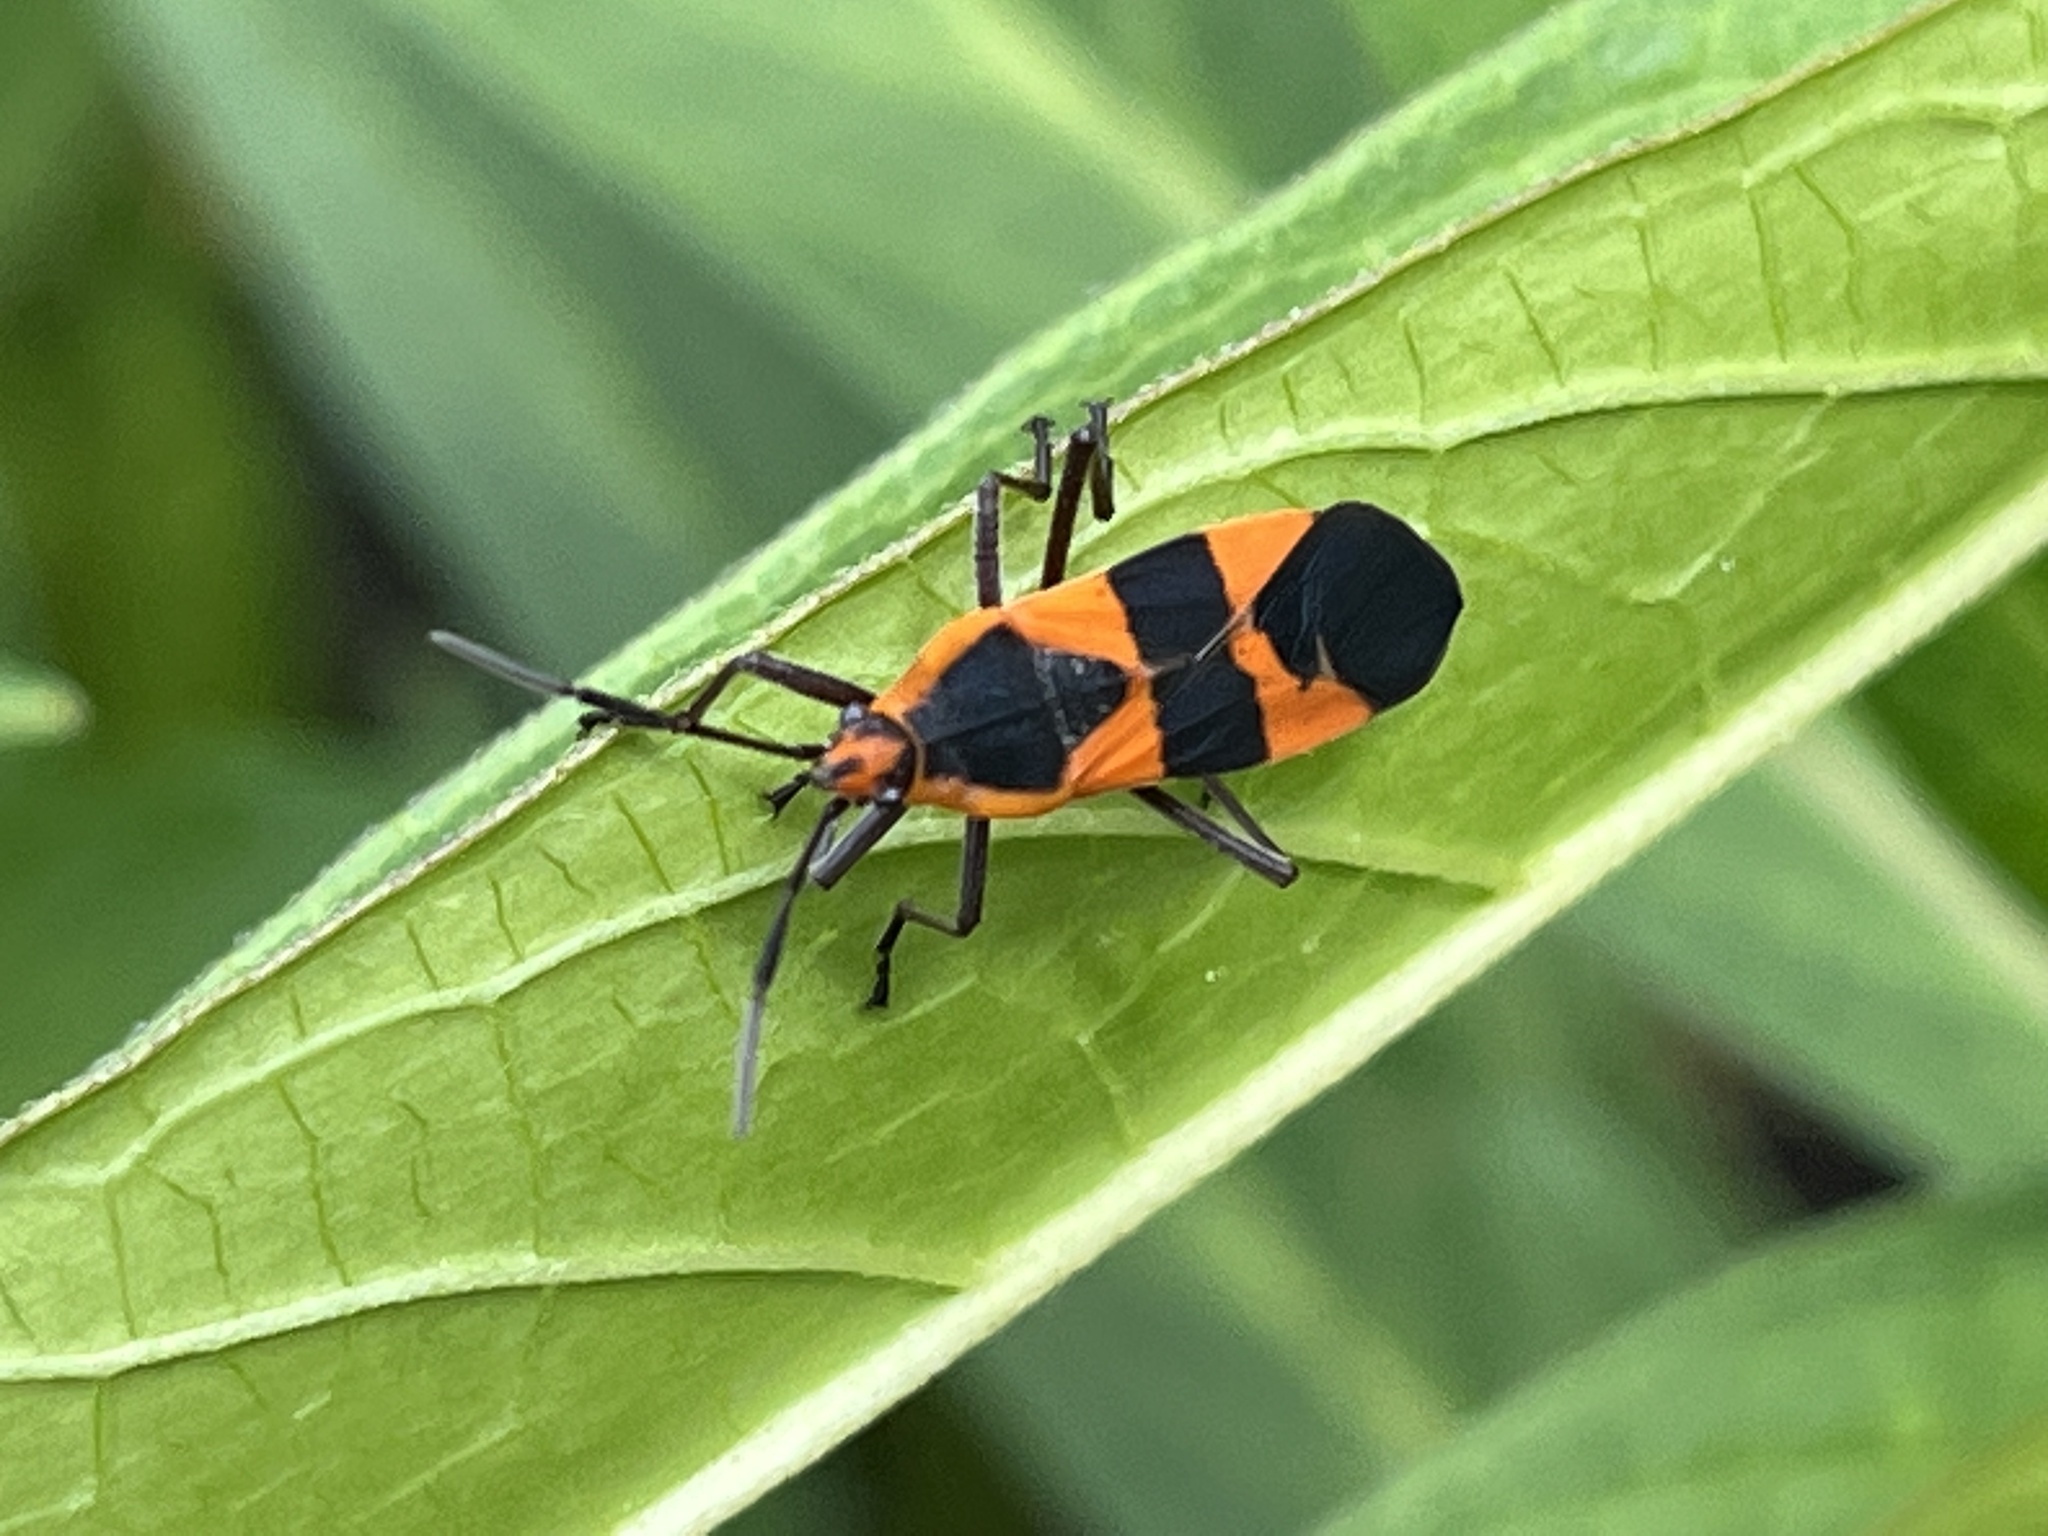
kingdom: Animalia
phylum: Arthropoda
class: Insecta
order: Hemiptera
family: Lygaeidae
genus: Oncopeltus
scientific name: Oncopeltus fasciatus
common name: Large milkweed bug
